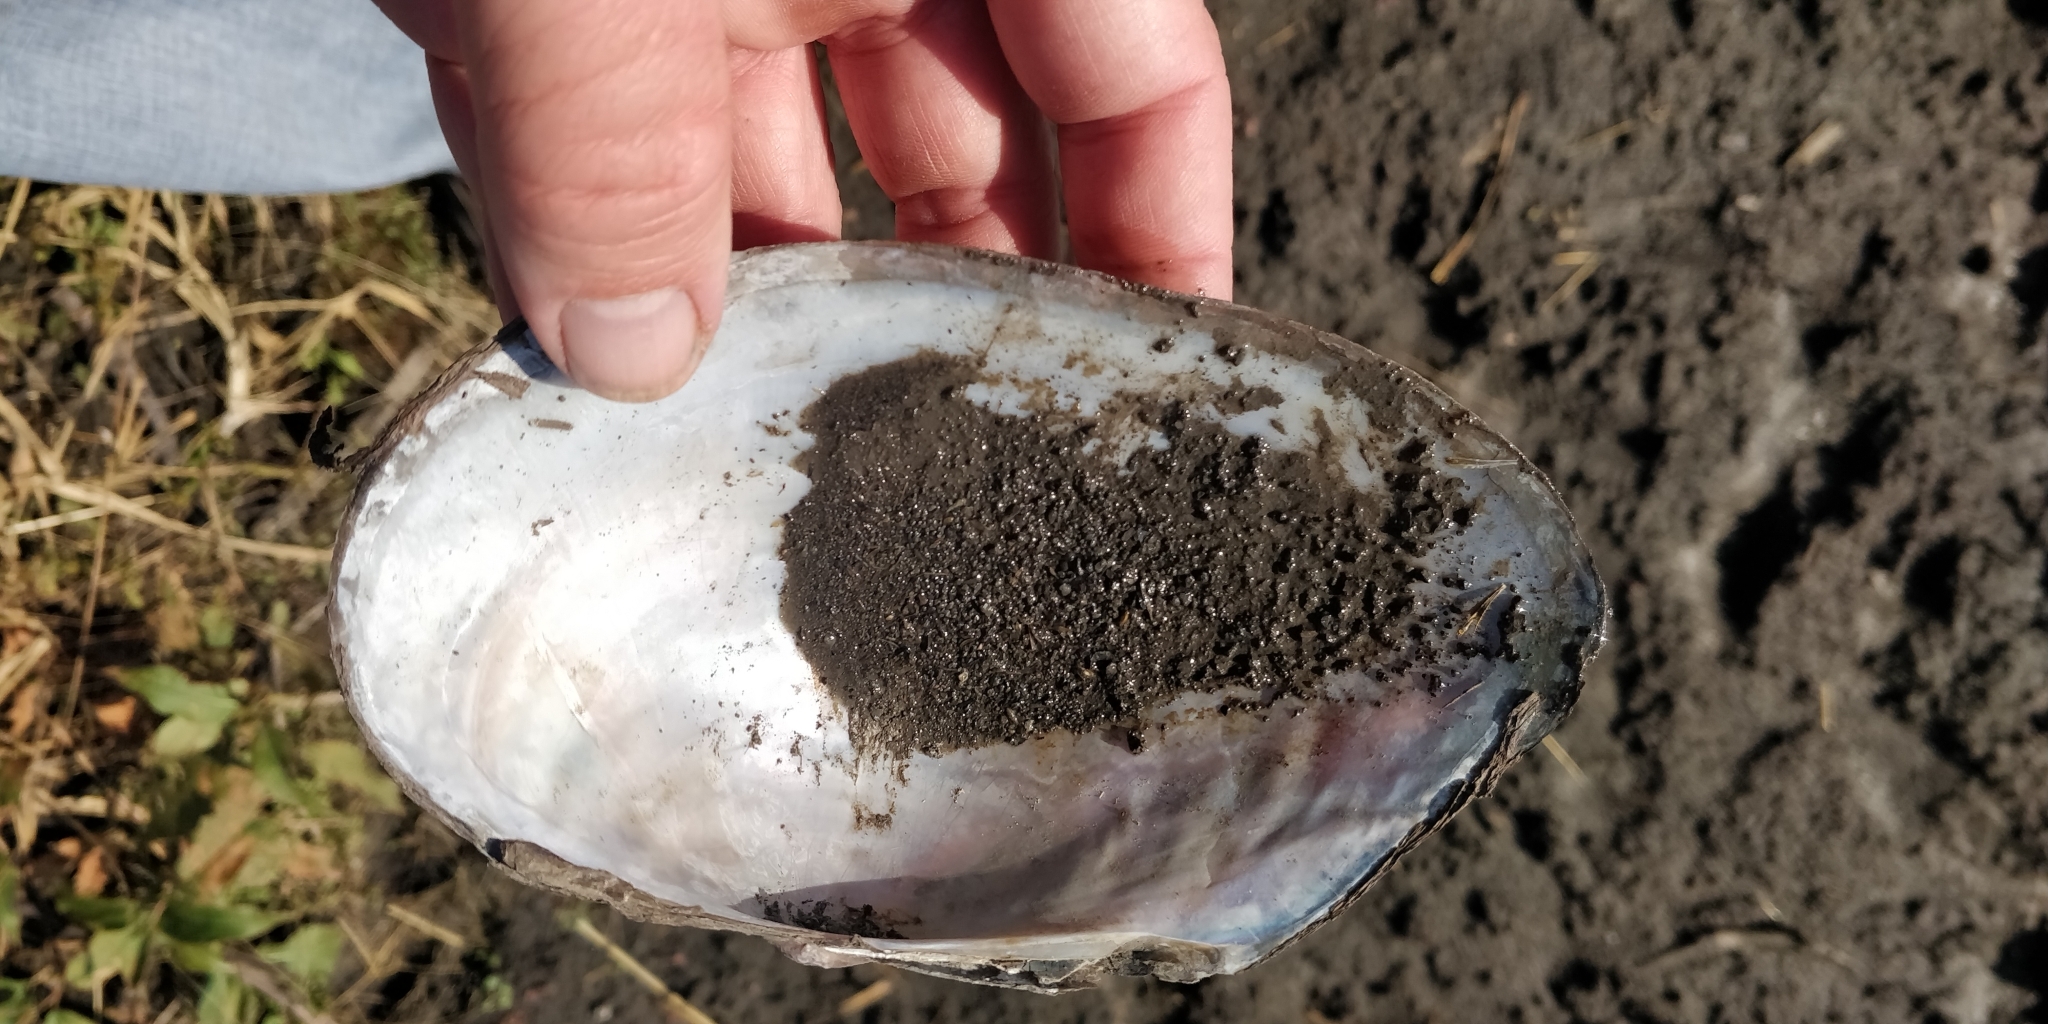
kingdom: Animalia
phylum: Mollusca
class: Bivalvia
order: Unionida
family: Unionidae
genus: Pyganodon
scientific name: Pyganodon grandis
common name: Giant floater
